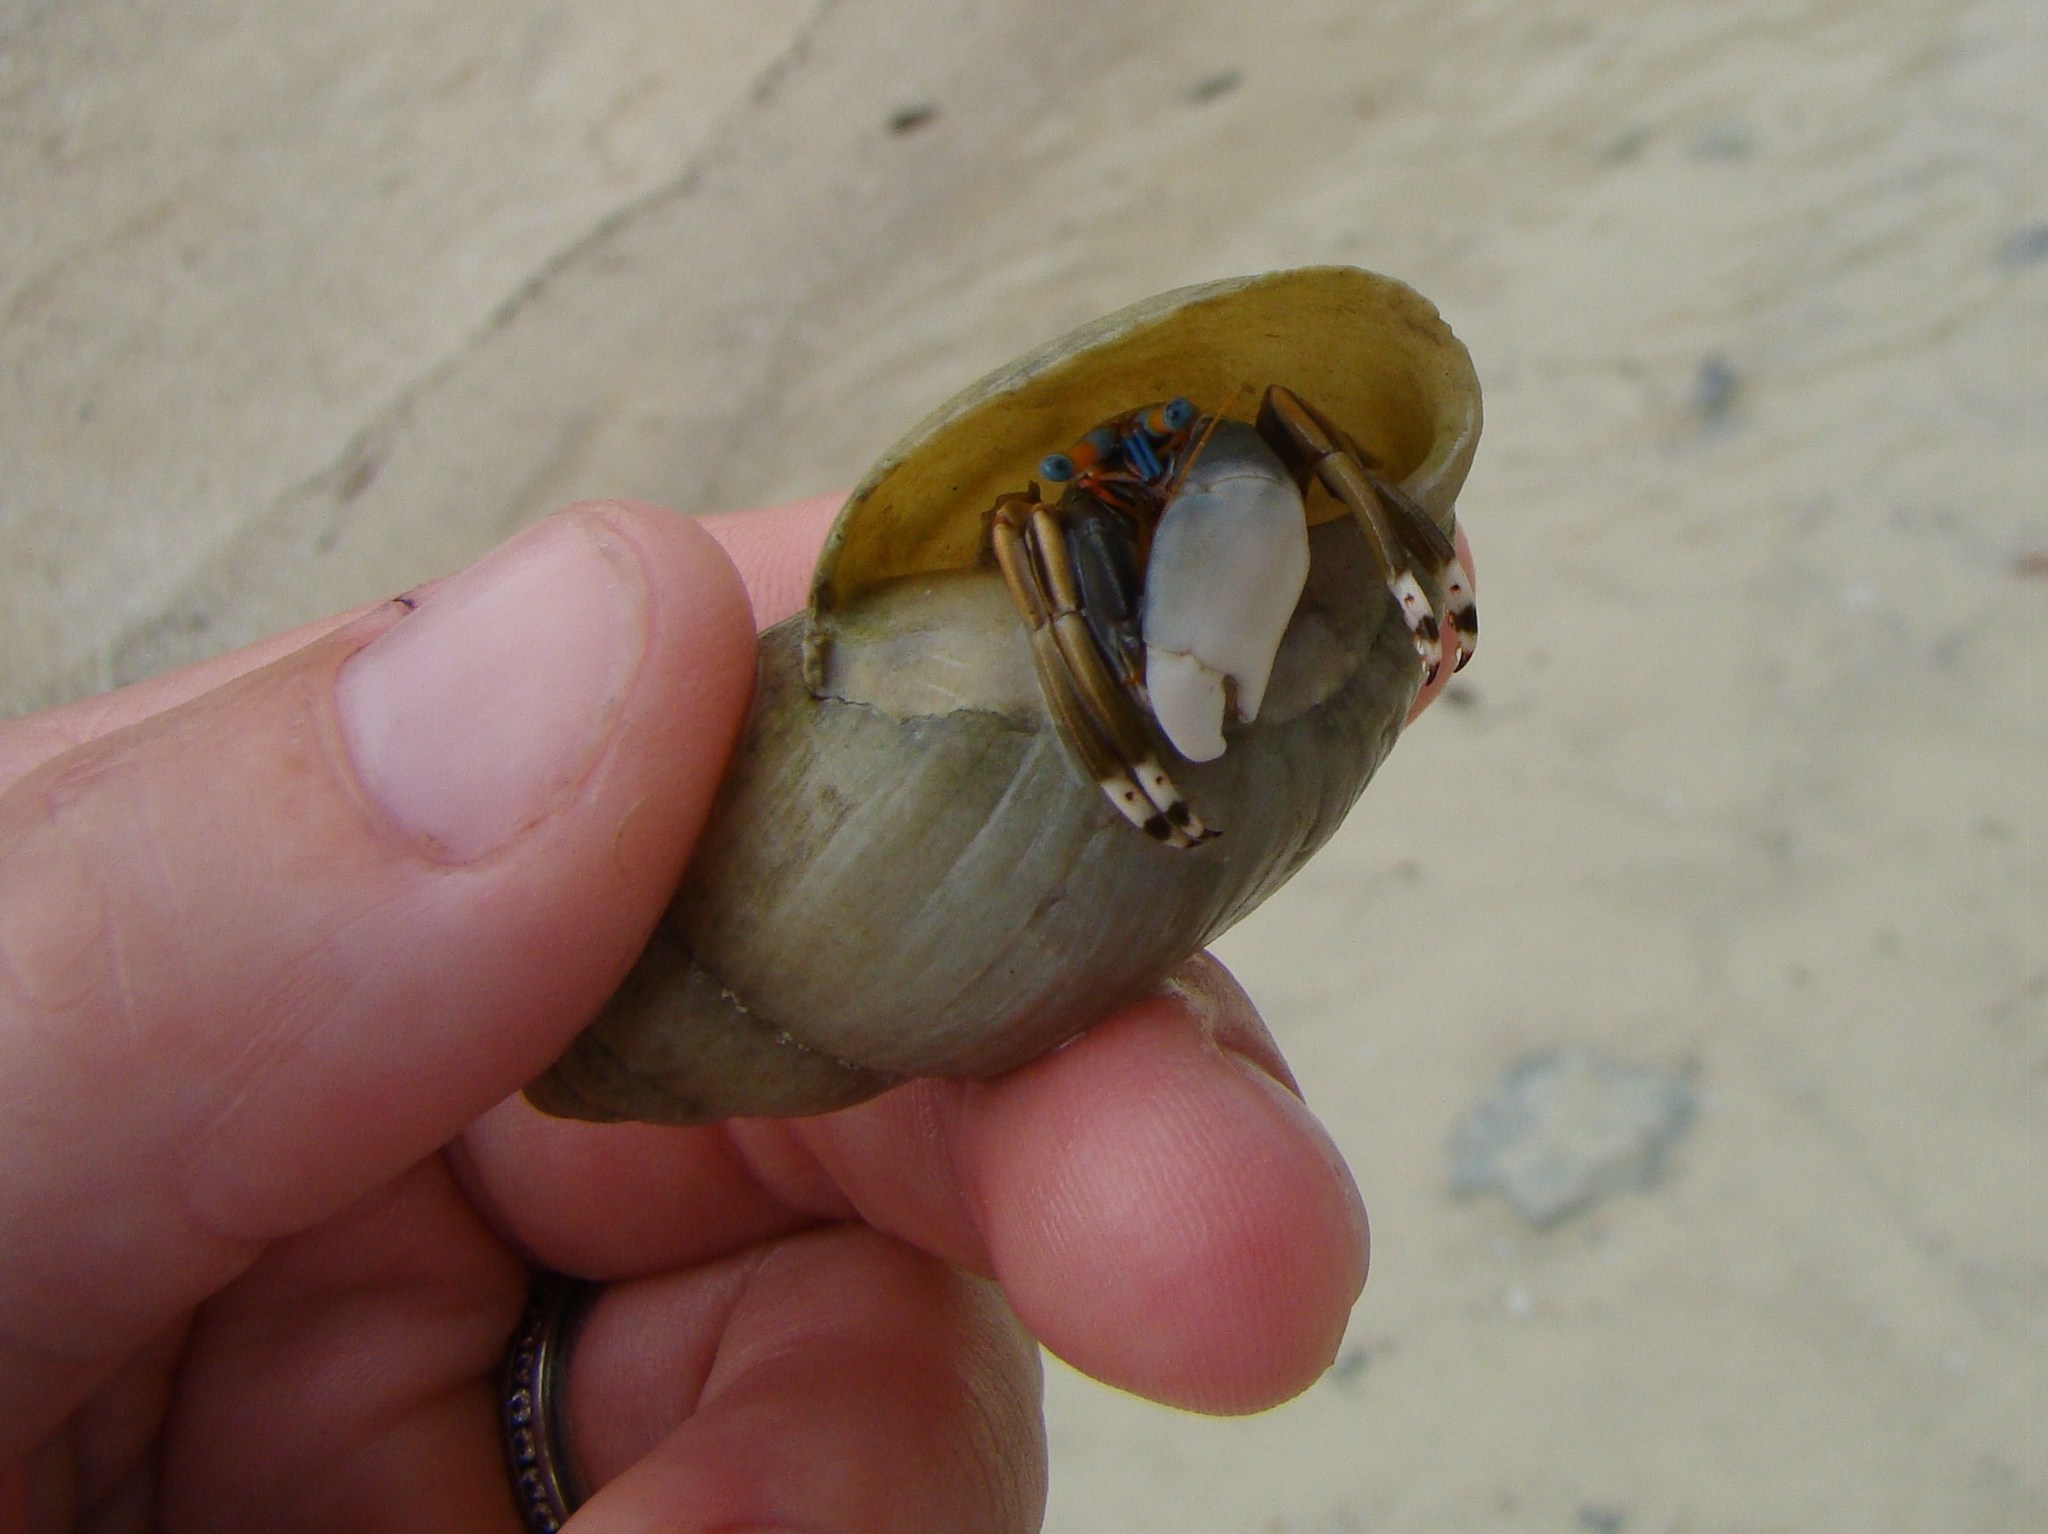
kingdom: Animalia
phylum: Arthropoda
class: Malacostraca
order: Decapoda
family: Diogenidae
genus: Calcinus
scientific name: Calcinus laevimanus
